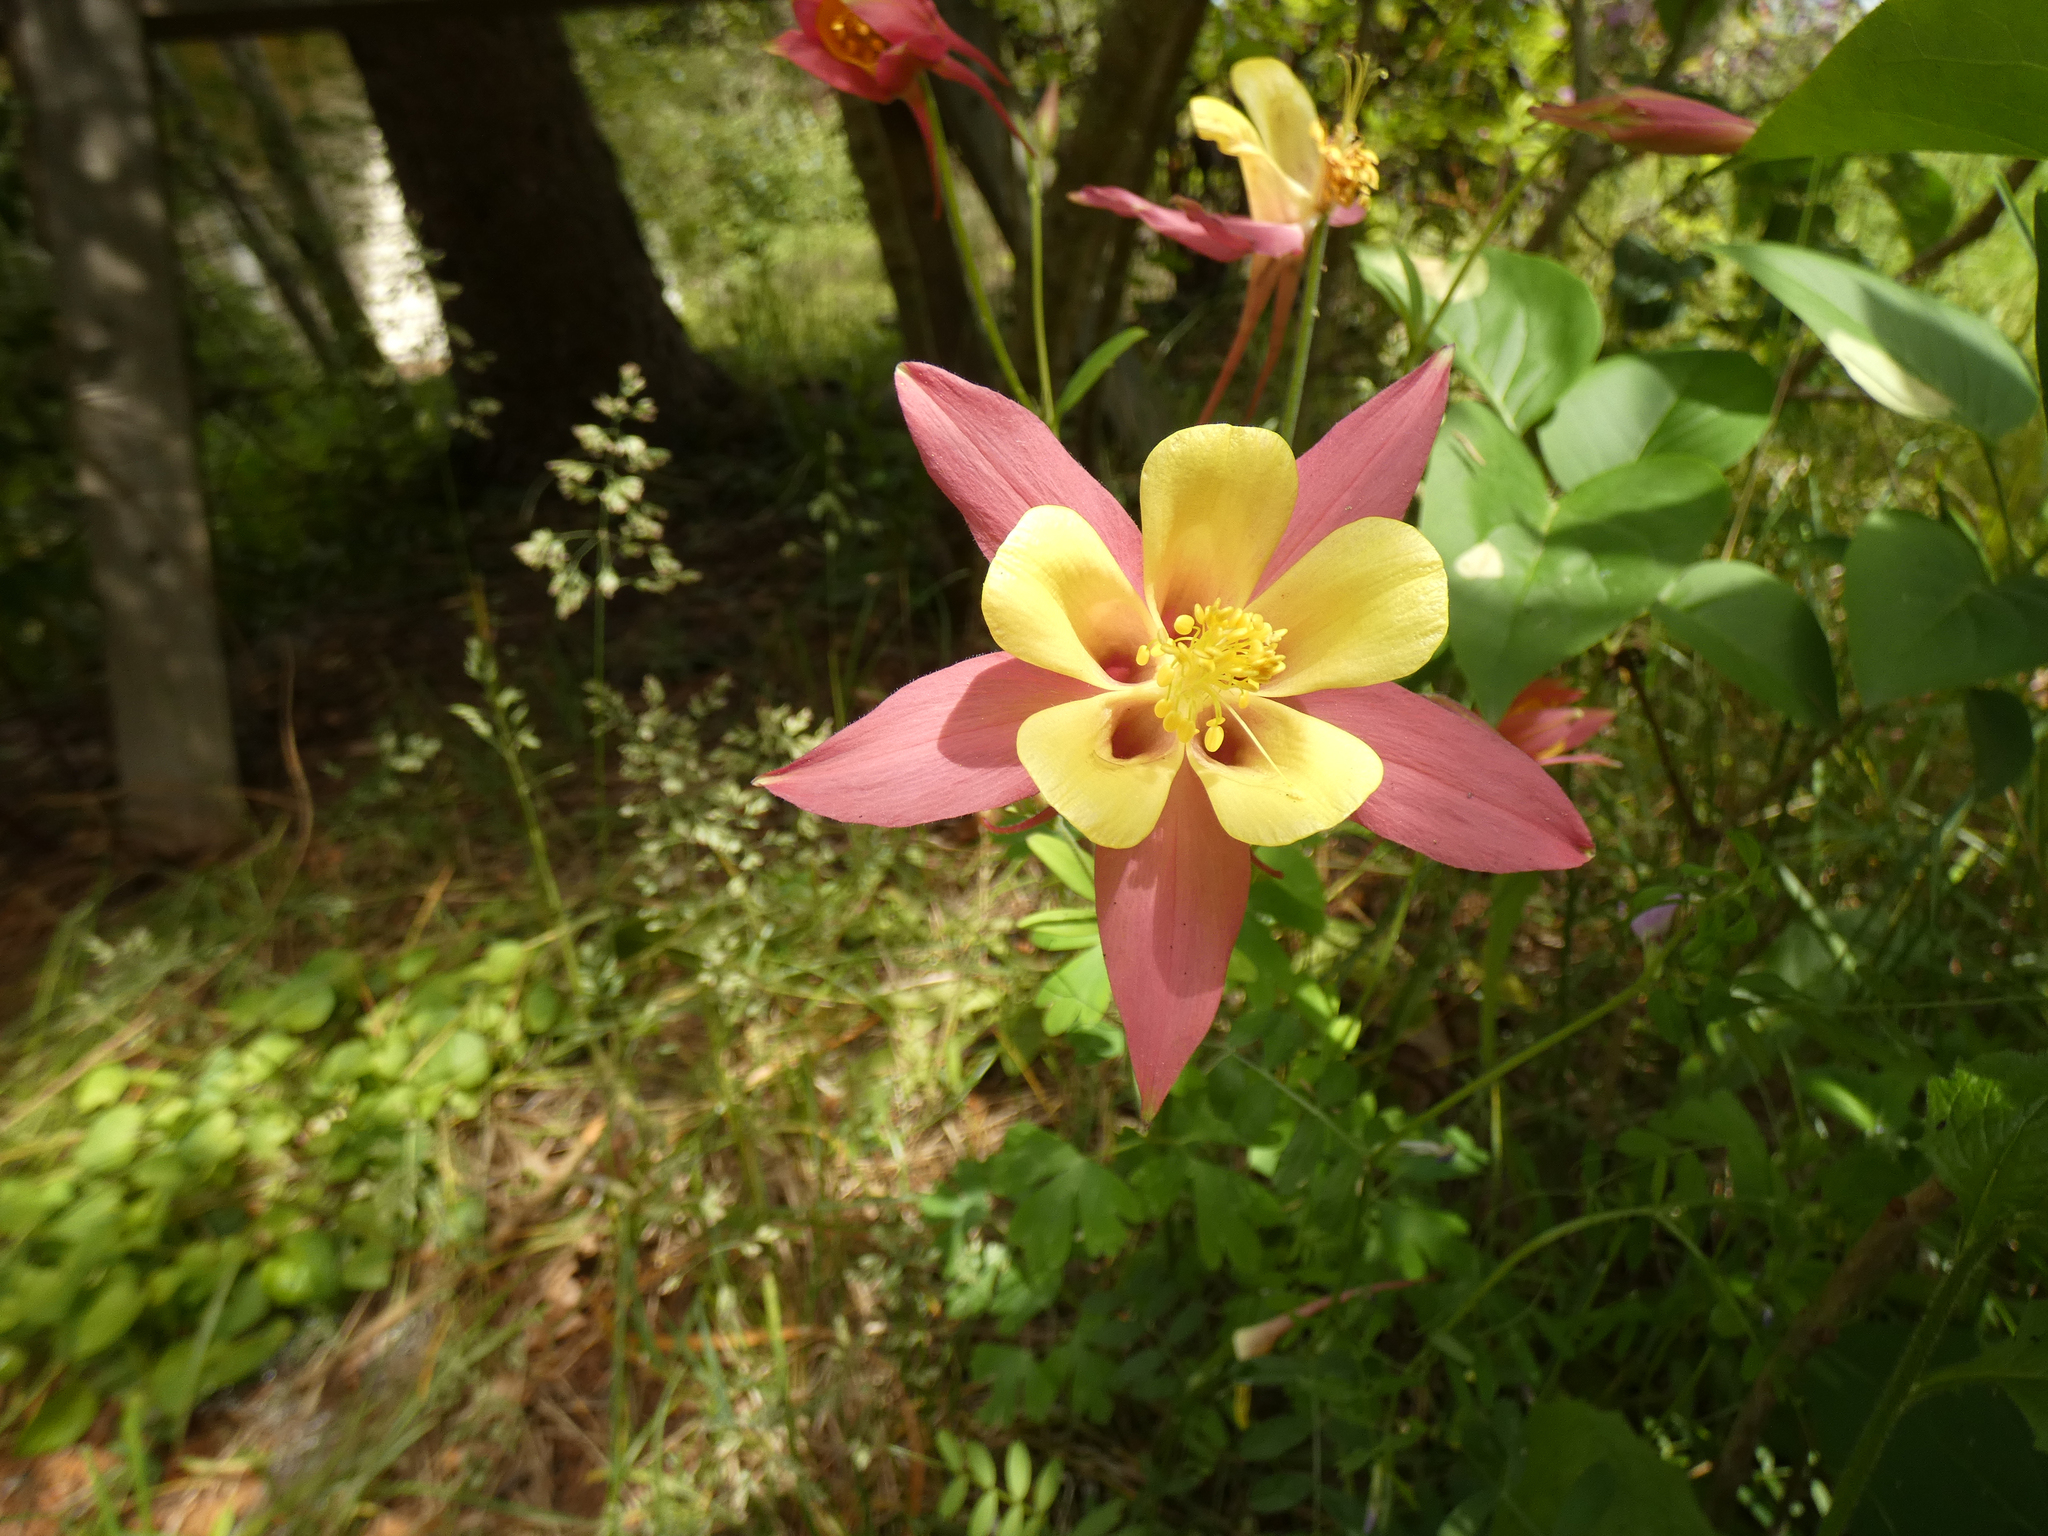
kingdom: Plantae
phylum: Tracheophyta
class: Magnoliopsida
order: Ranunculales
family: Ranunculaceae
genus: Aquilegia
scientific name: Aquilegia
